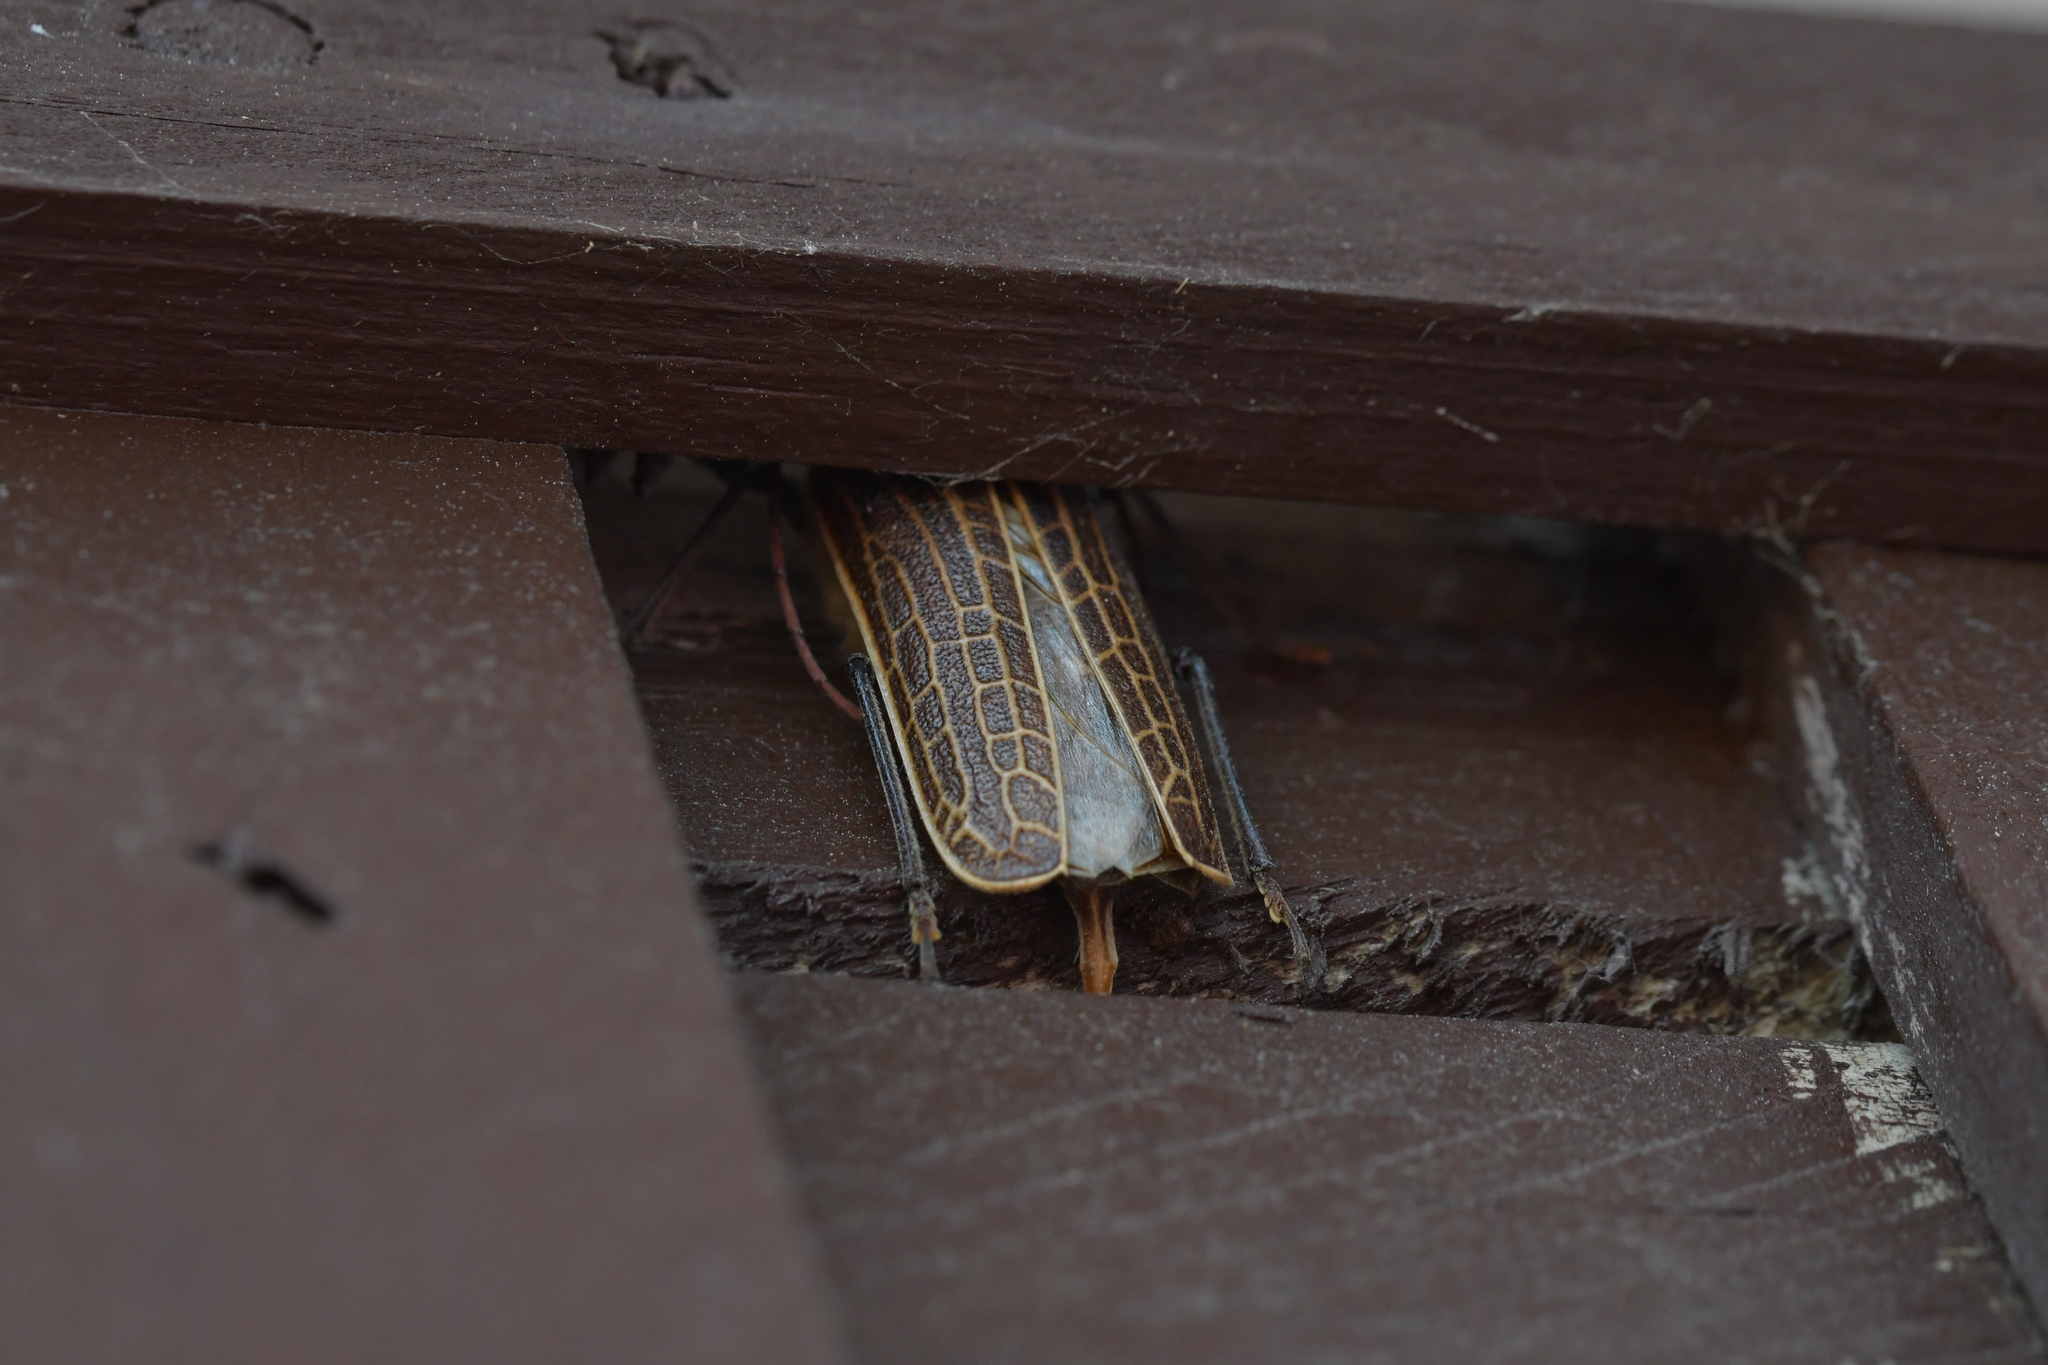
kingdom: Animalia
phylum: Arthropoda
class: Insecta
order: Coleoptera
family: Cerambycidae
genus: Prionoplus
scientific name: Prionoplus reticularis
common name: Huhu beetle
